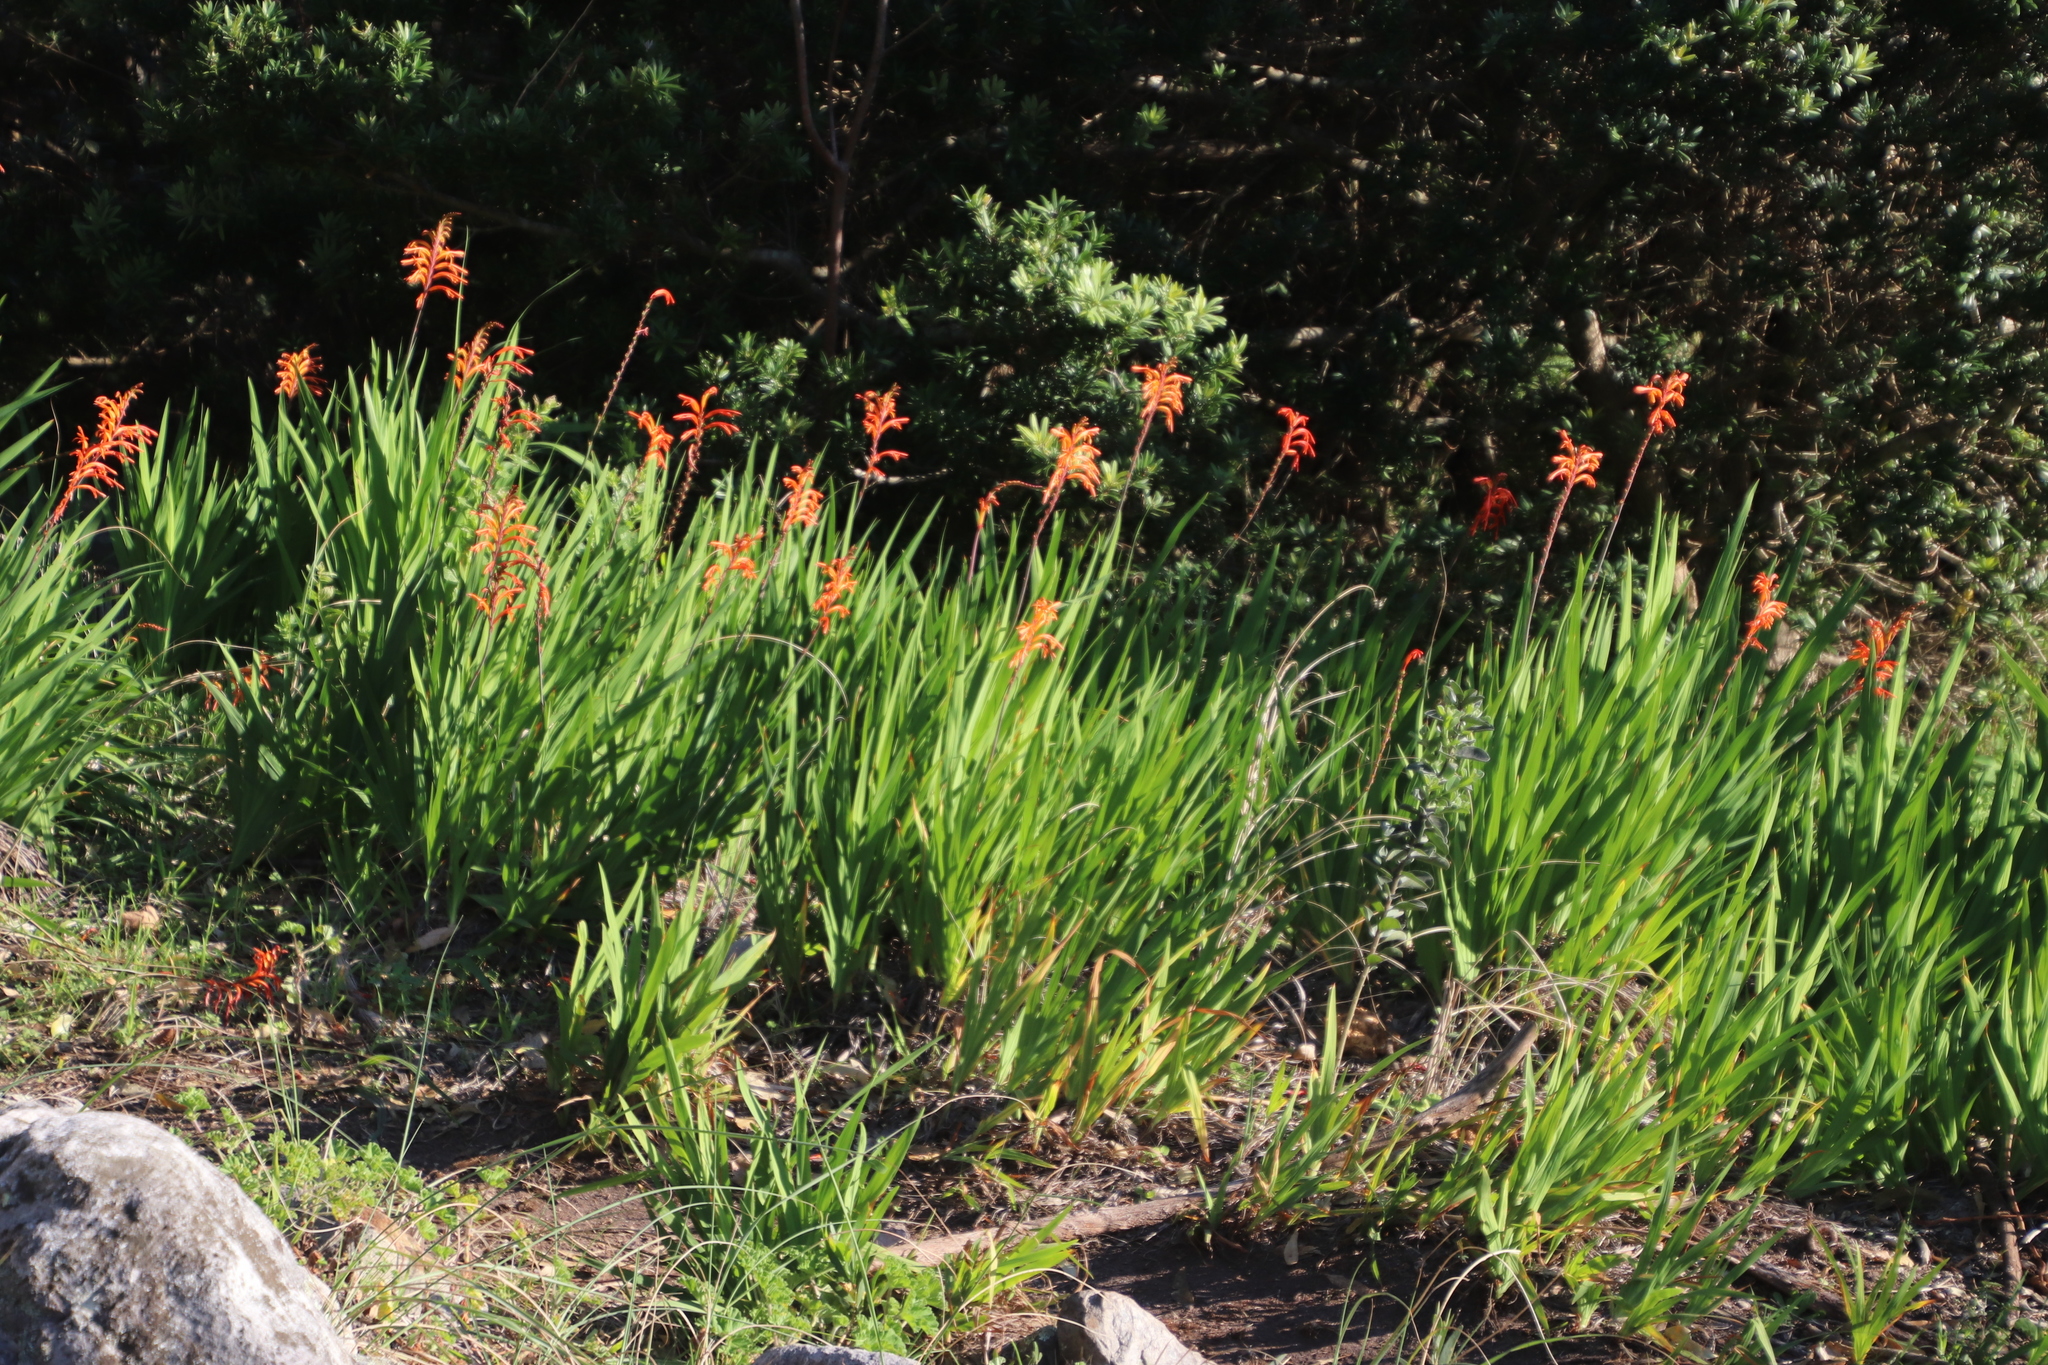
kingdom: Plantae
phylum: Tracheophyta
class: Liliopsida
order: Asparagales
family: Iridaceae
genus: Chasmanthe
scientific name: Chasmanthe floribunda
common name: African cornflag
